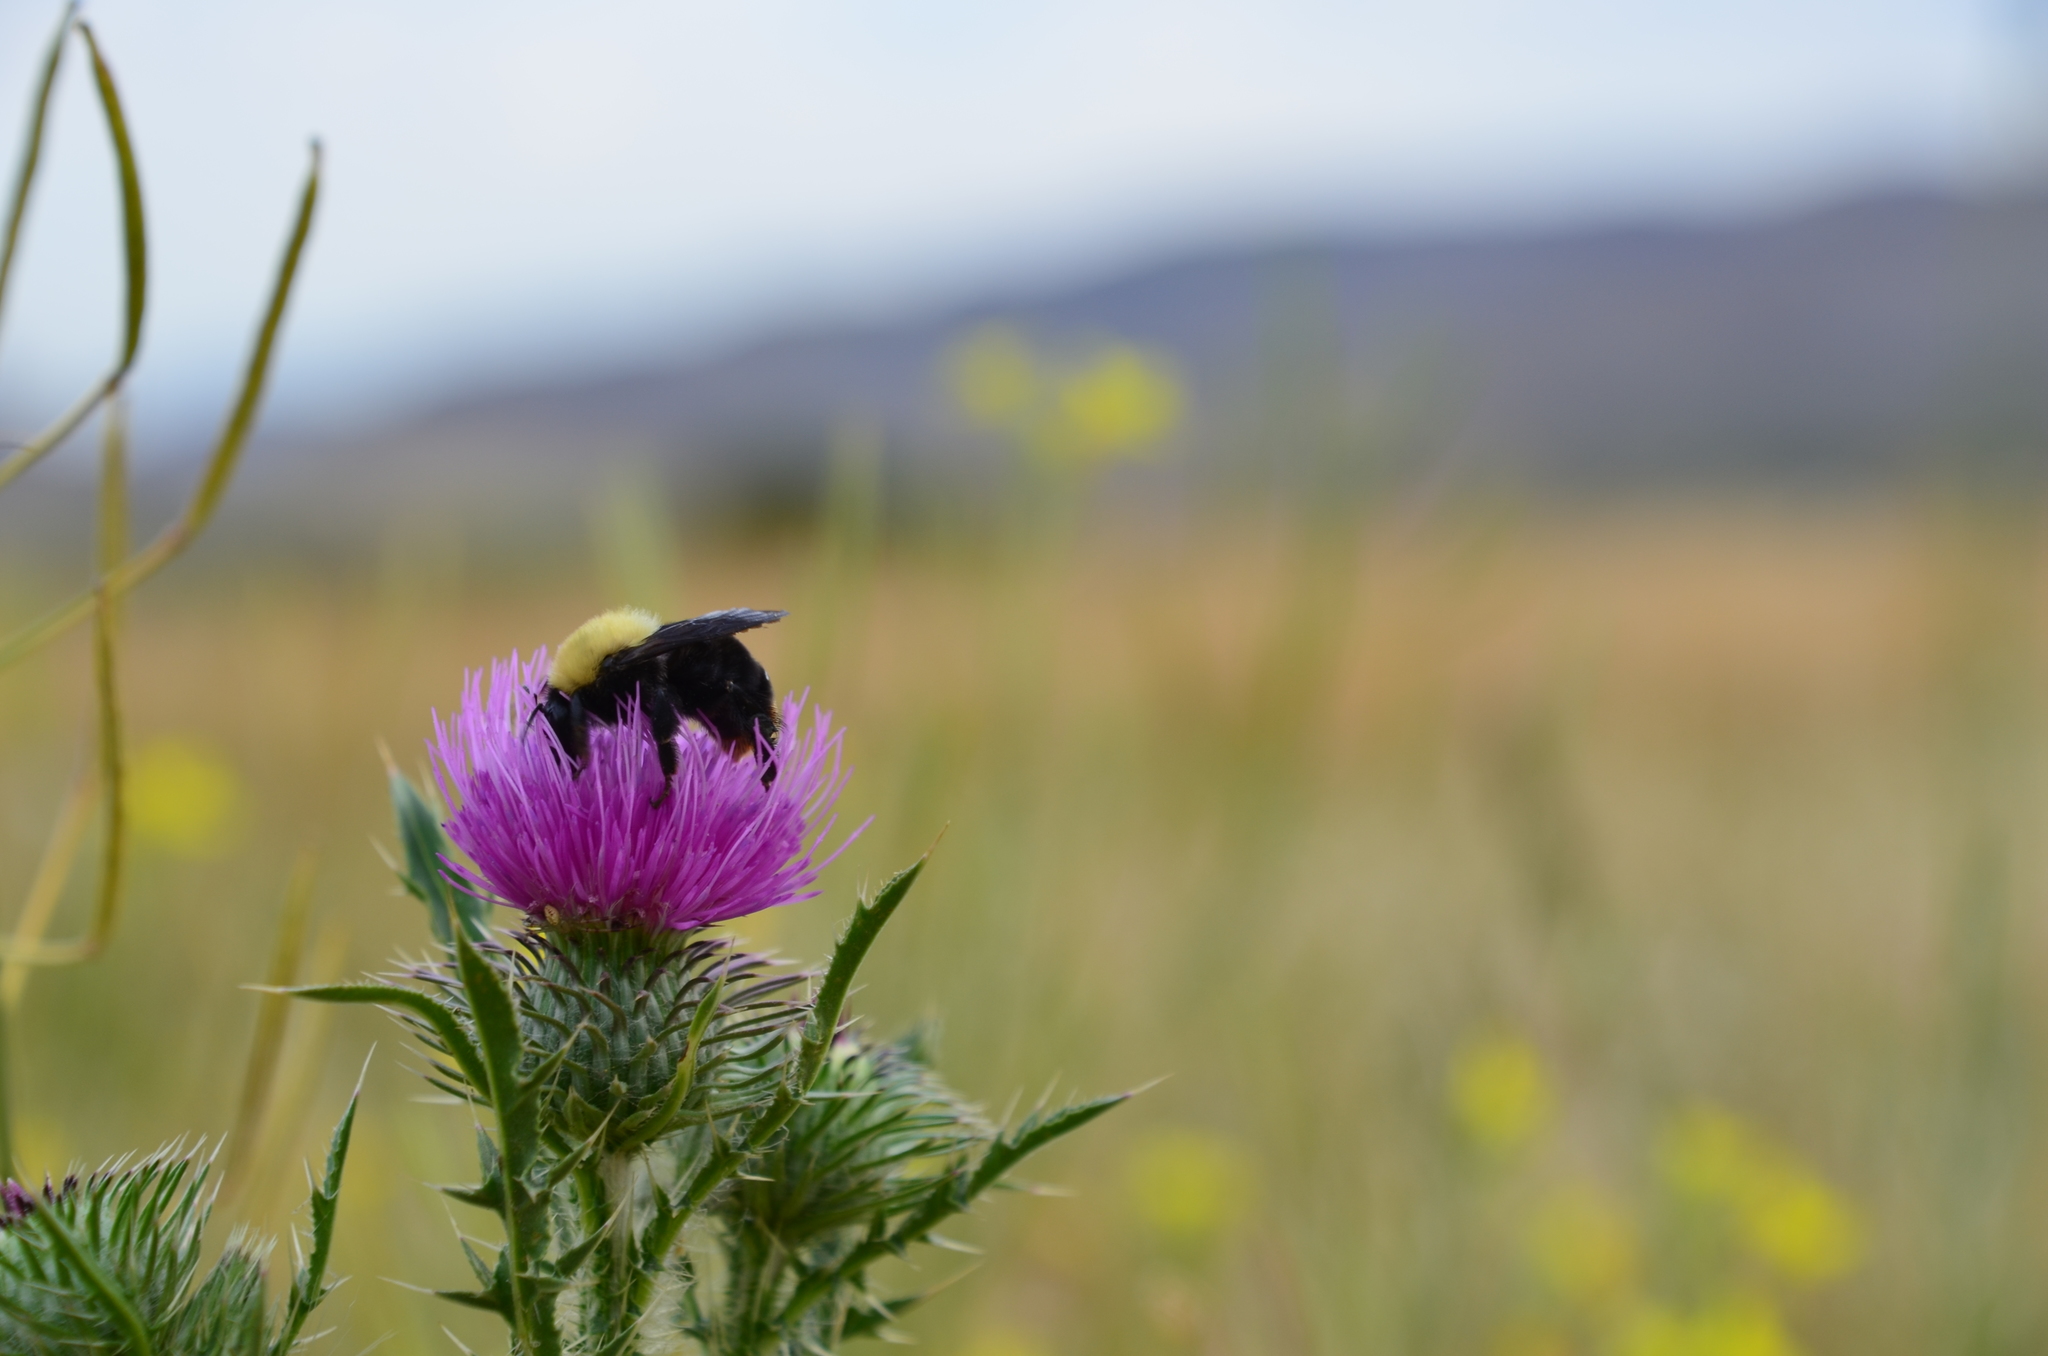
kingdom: Animalia
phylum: Arthropoda
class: Insecta
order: Hymenoptera
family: Apidae
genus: Bombus
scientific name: Bombus bellicosus
